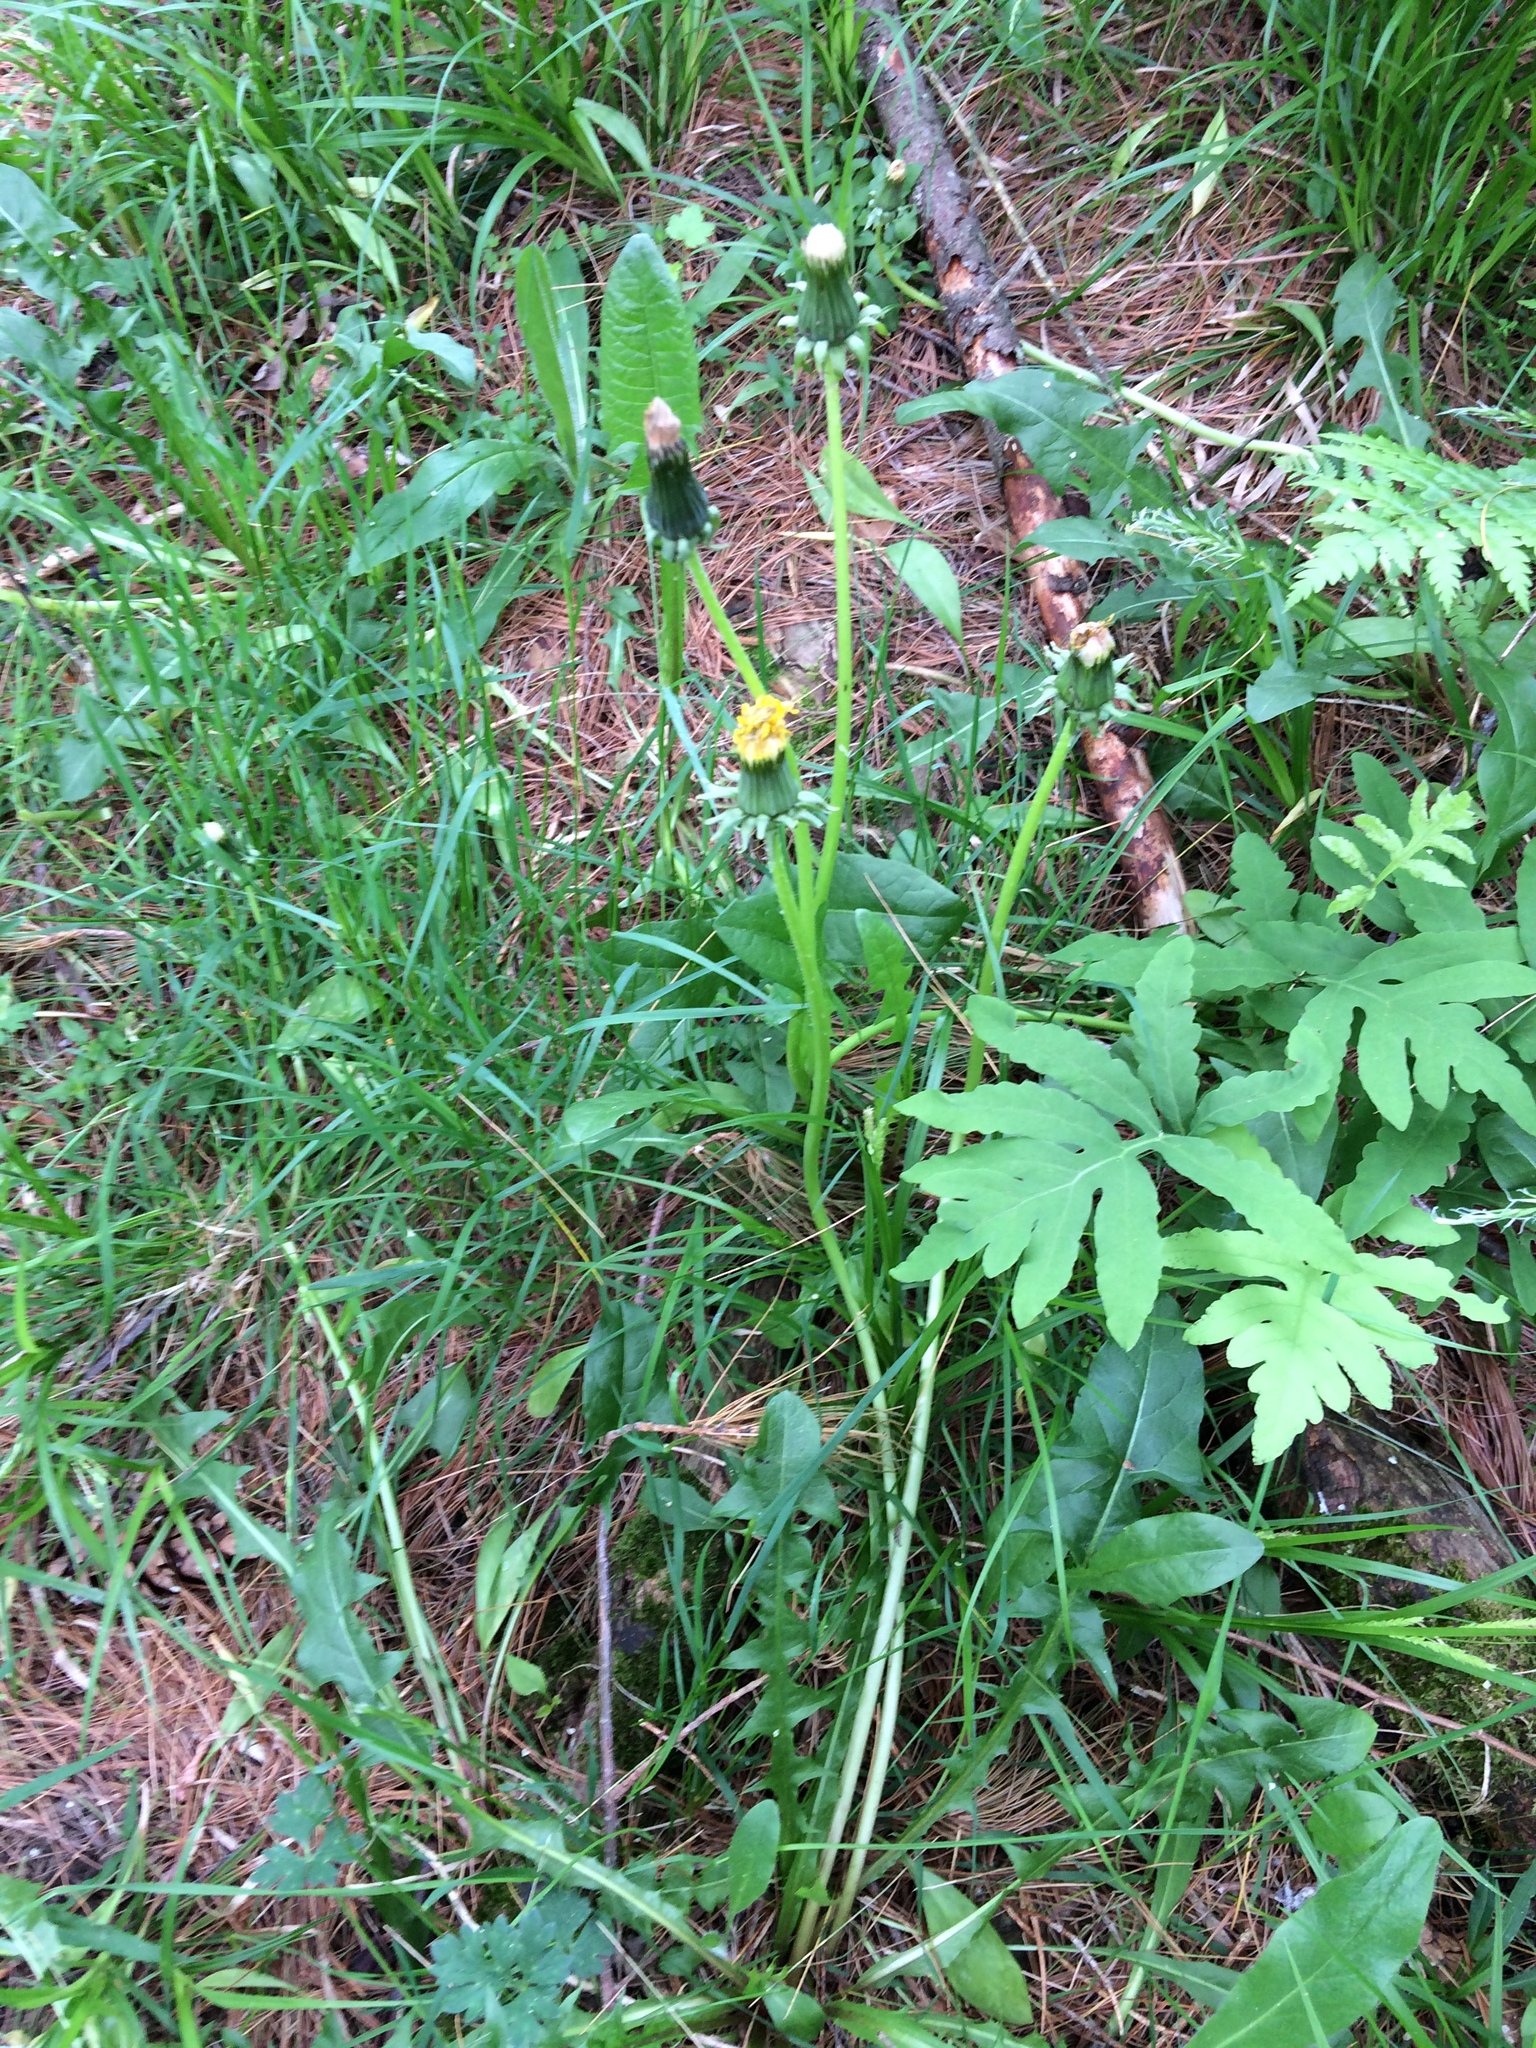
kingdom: Plantae
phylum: Tracheophyta
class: Magnoliopsida
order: Asterales
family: Asteraceae
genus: Taraxacum
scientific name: Taraxacum officinale
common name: Common dandelion
